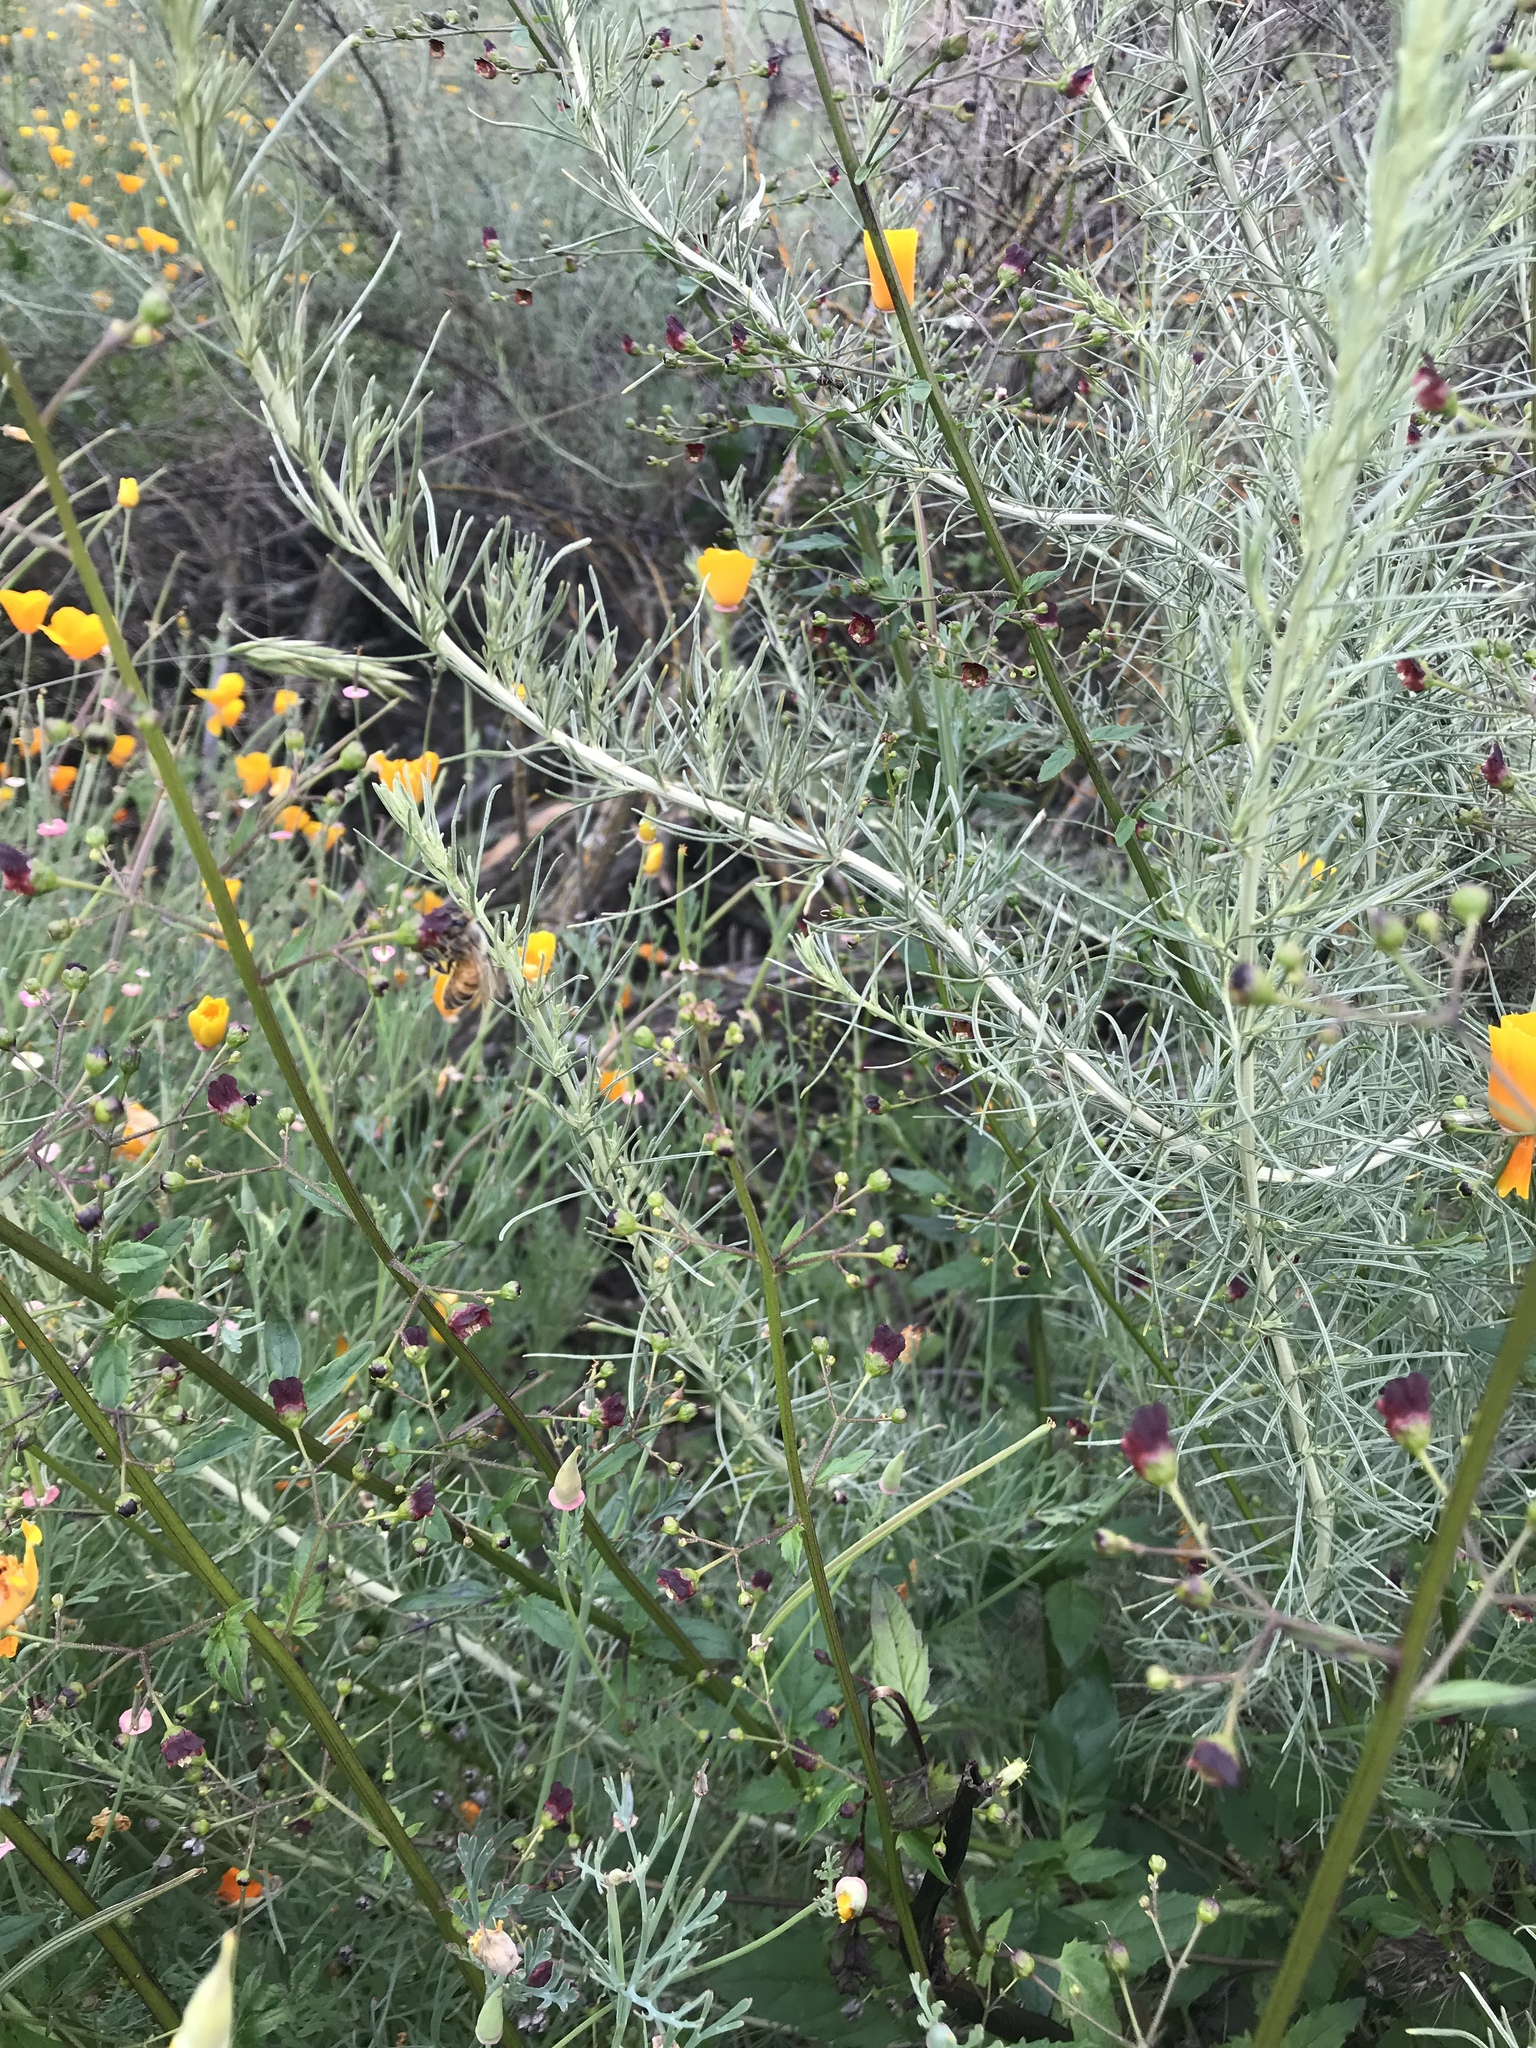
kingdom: Plantae
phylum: Tracheophyta
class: Magnoliopsida
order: Asterales
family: Asteraceae
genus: Artemisia
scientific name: Artemisia californica
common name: California sagebrush
